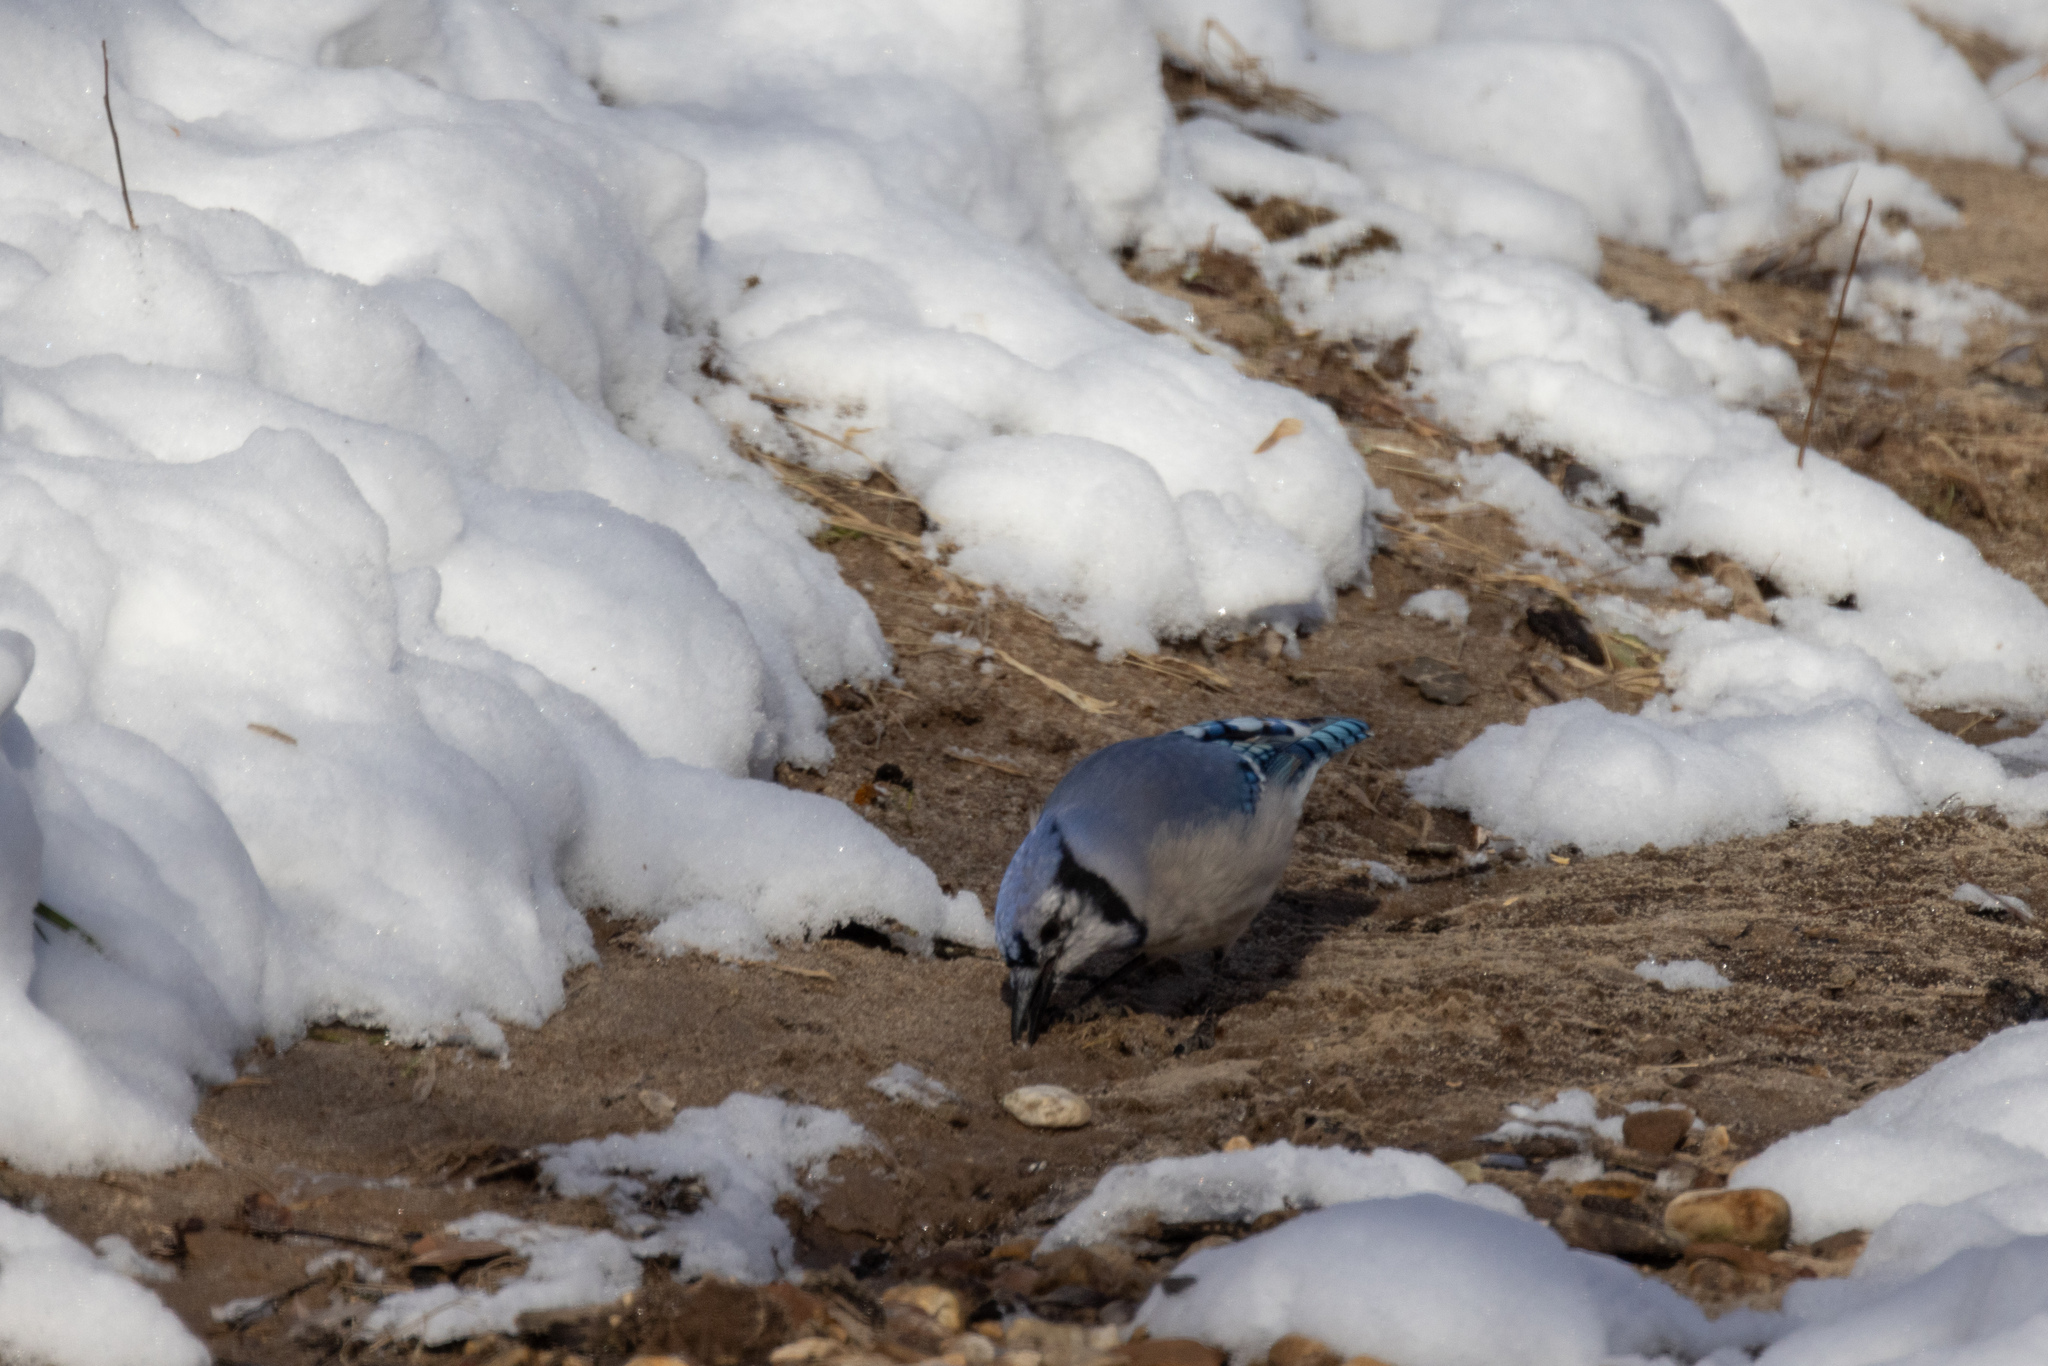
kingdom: Animalia
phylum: Chordata
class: Aves
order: Passeriformes
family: Corvidae
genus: Cyanocitta
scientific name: Cyanocitta cristata
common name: Blue jay
